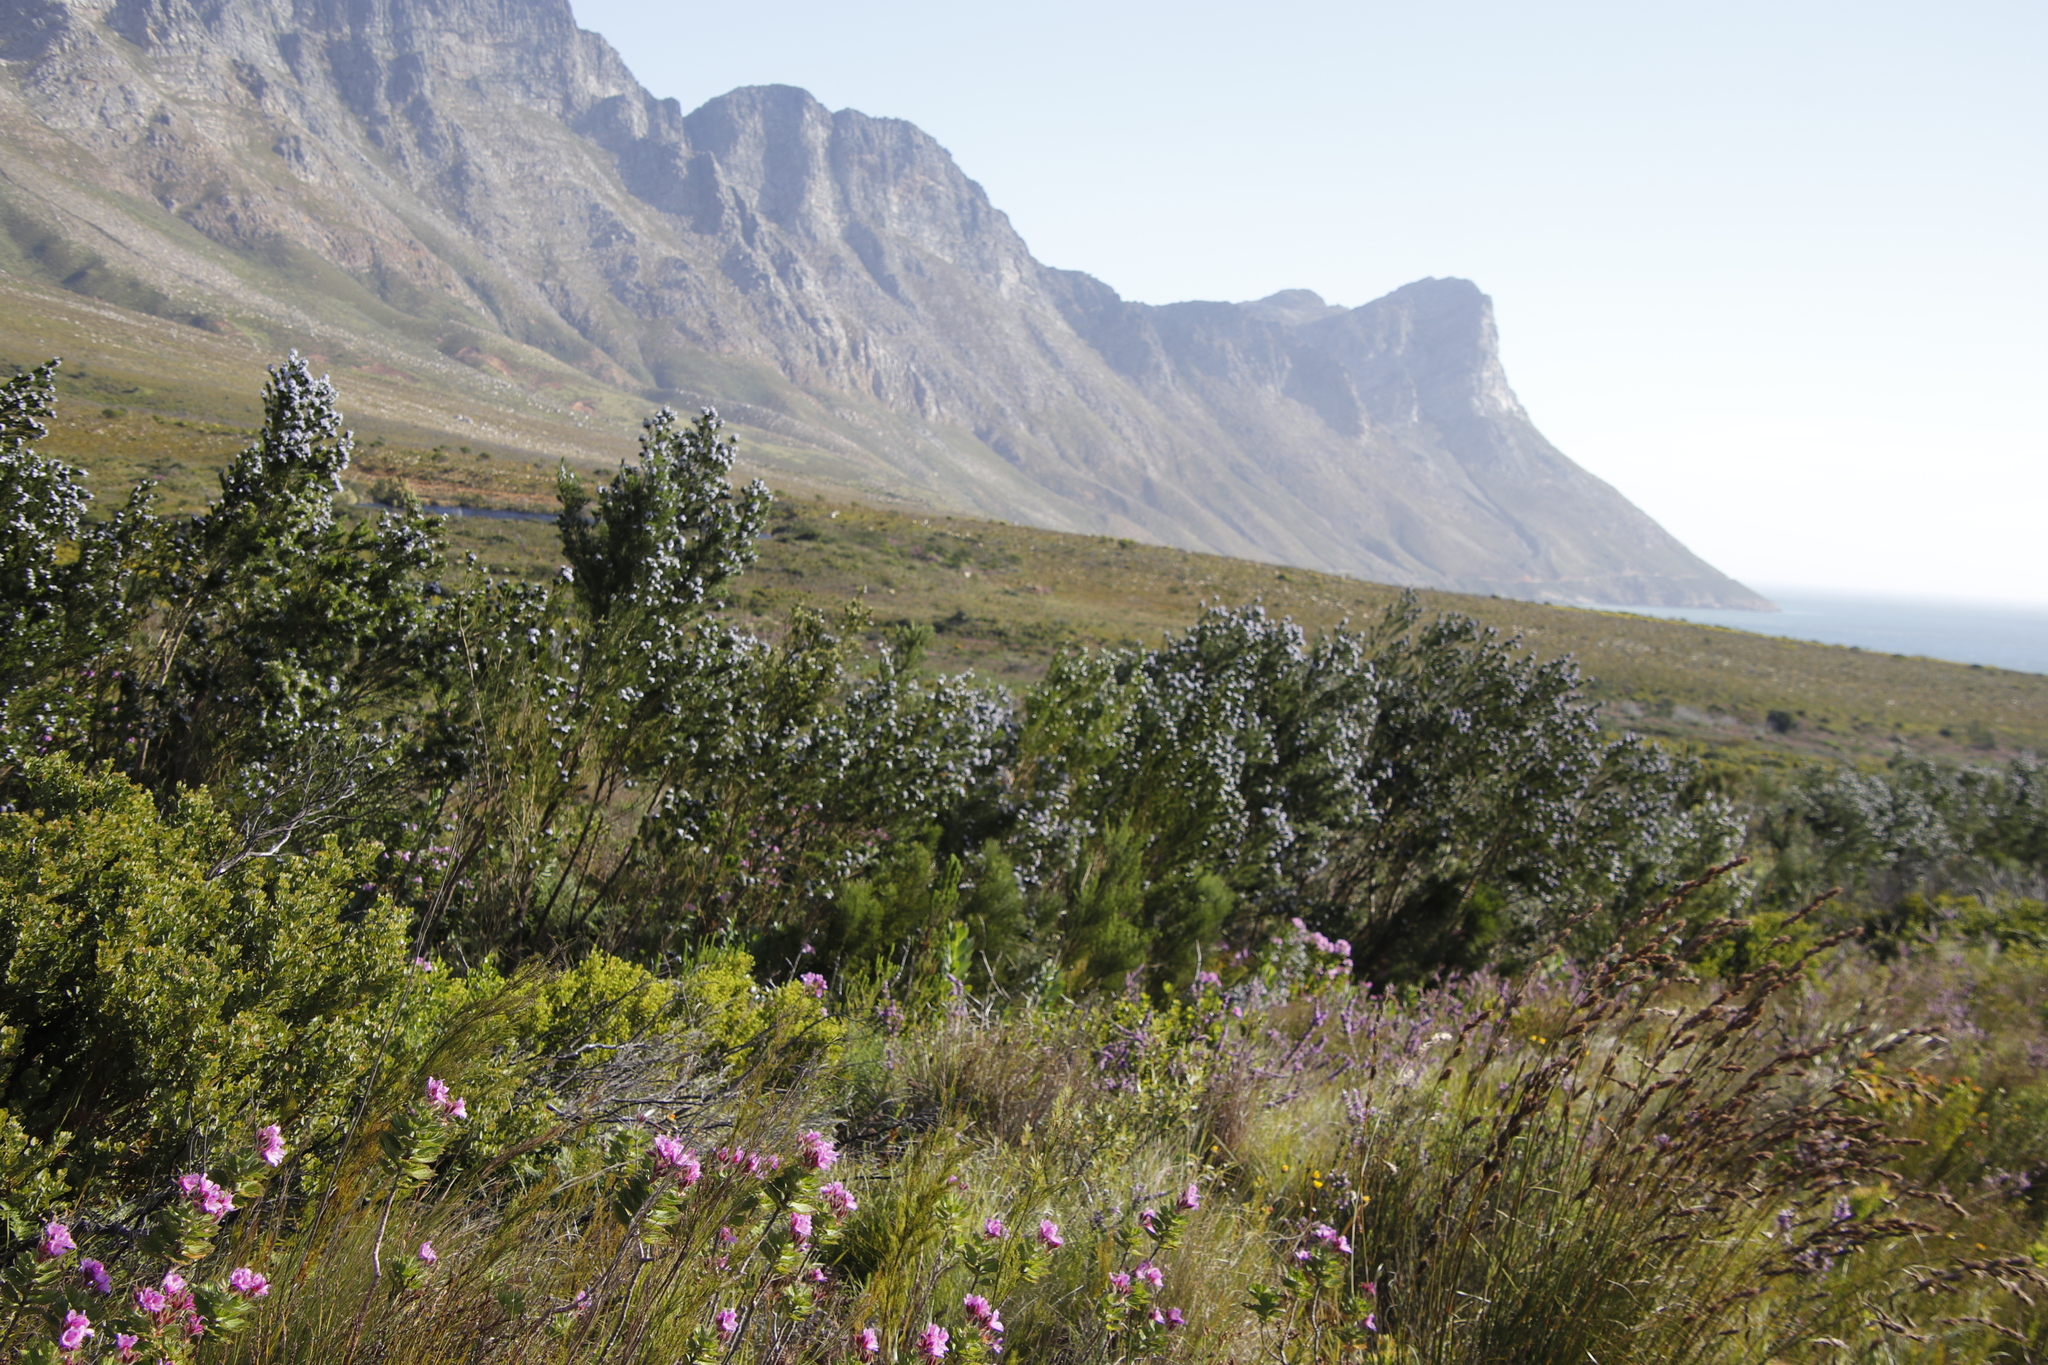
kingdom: Plantae
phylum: Tracheophyta
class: Magnoliopsida
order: Fabales
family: Fabaceae
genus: Psoralea
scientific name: Psoralea ivumba
